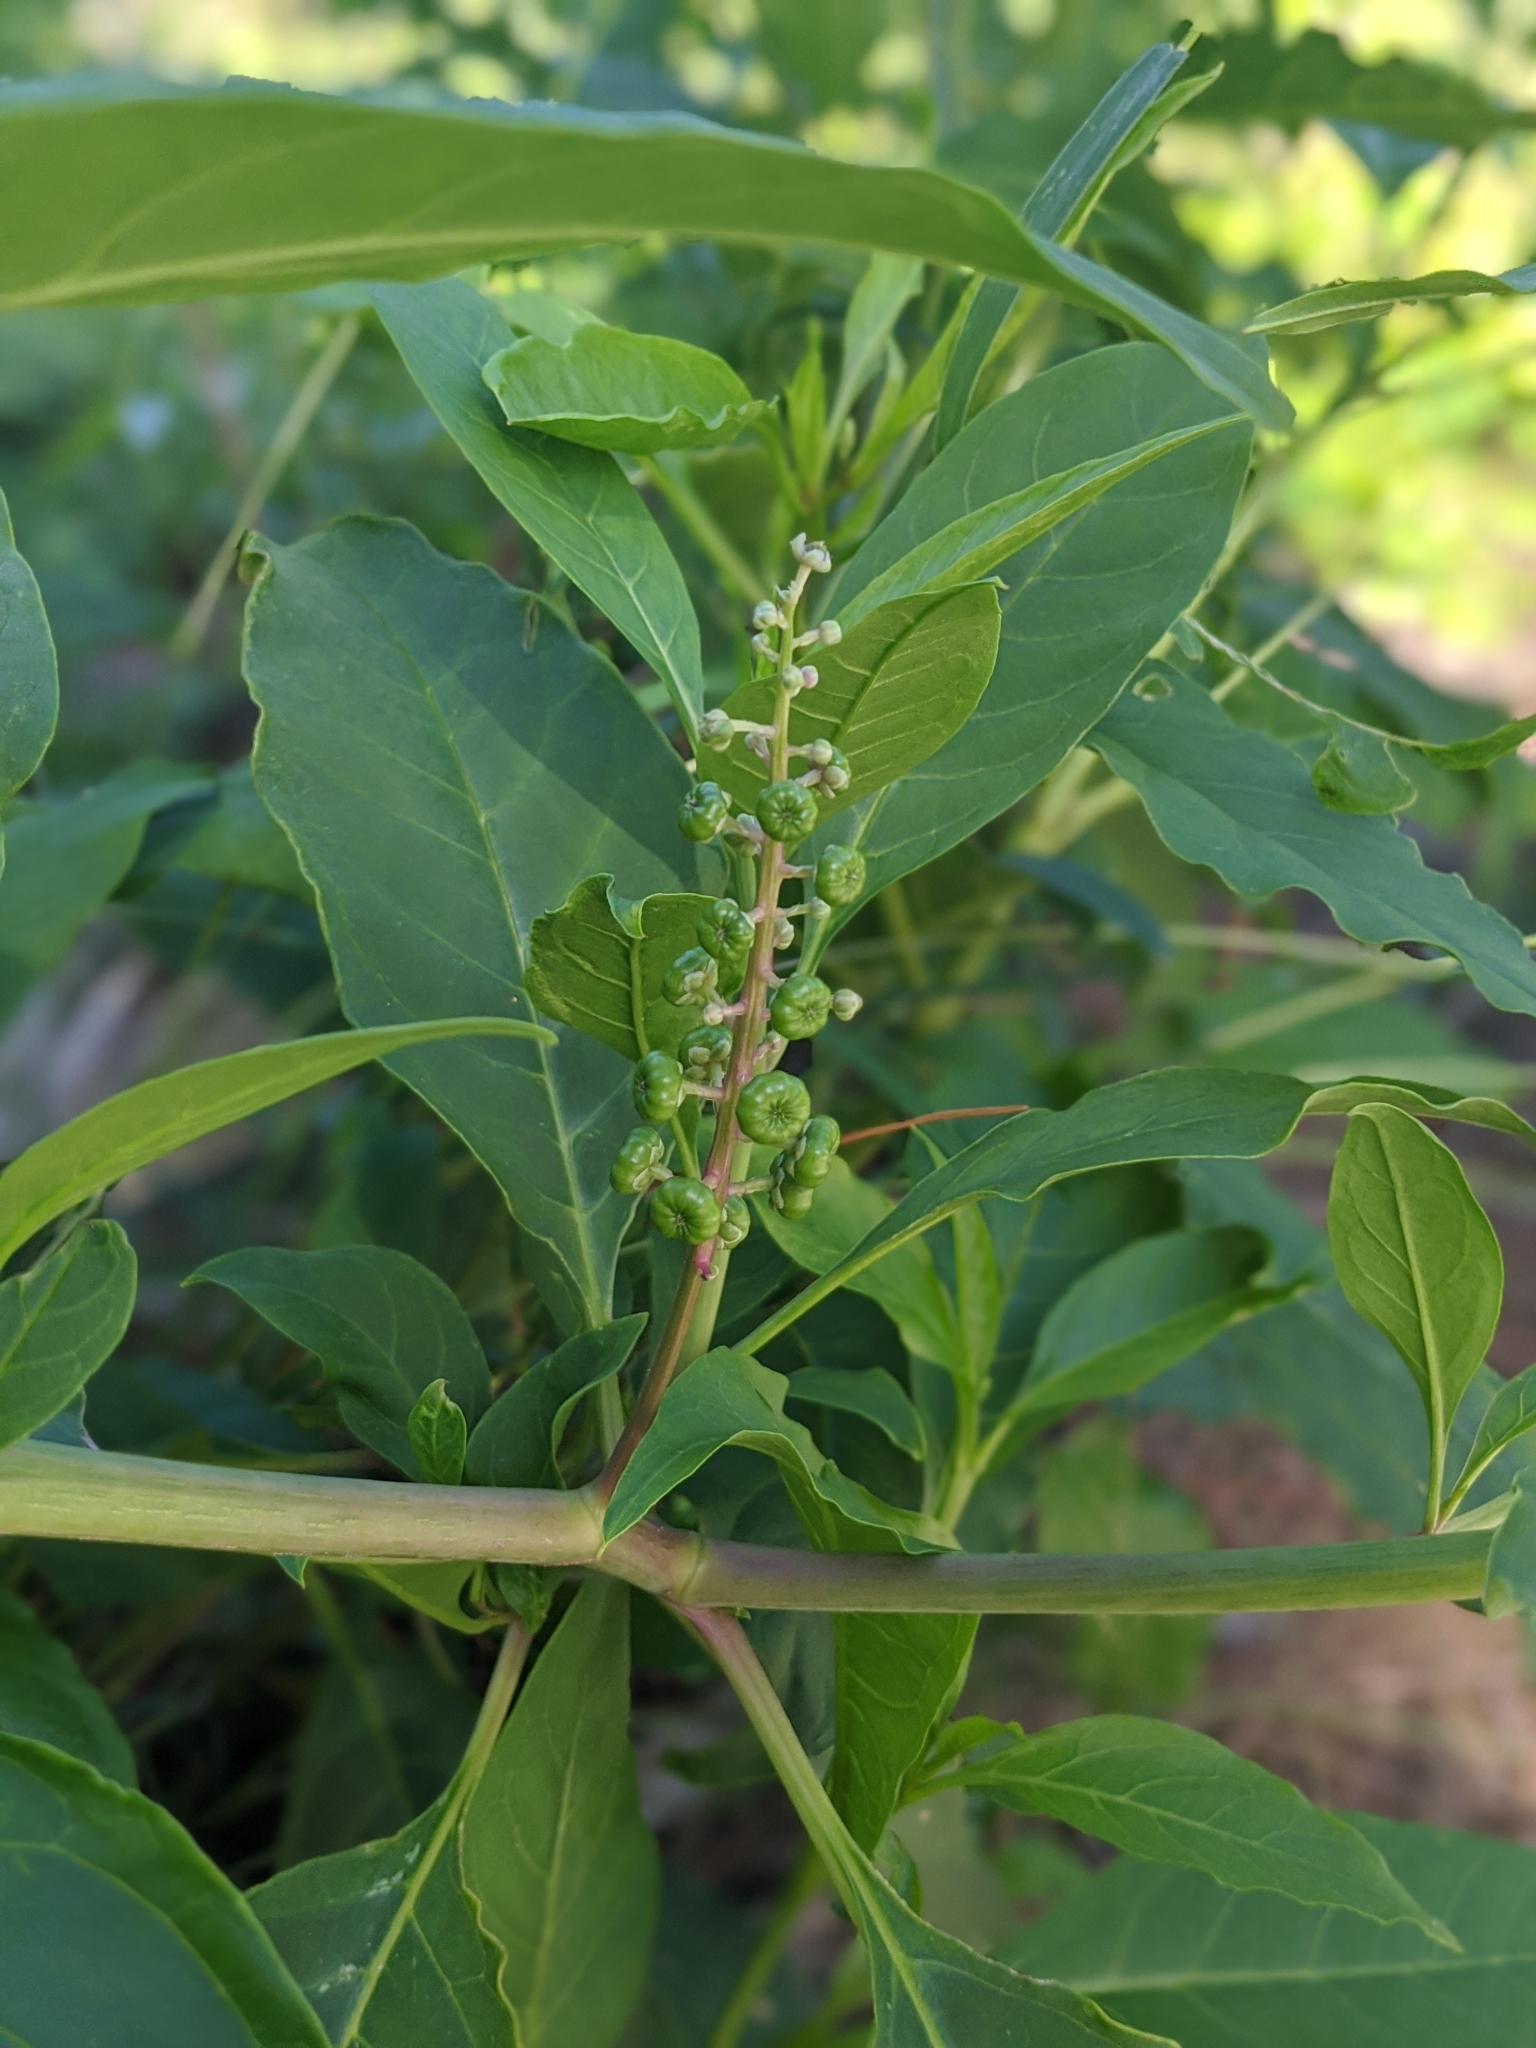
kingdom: Plantae
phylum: Tracheophyta
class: Magnoliopsida
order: Caryophyllales
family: Phytolaccaceae
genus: Phytolacca
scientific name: Phytolacca americana
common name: American pokeweed
